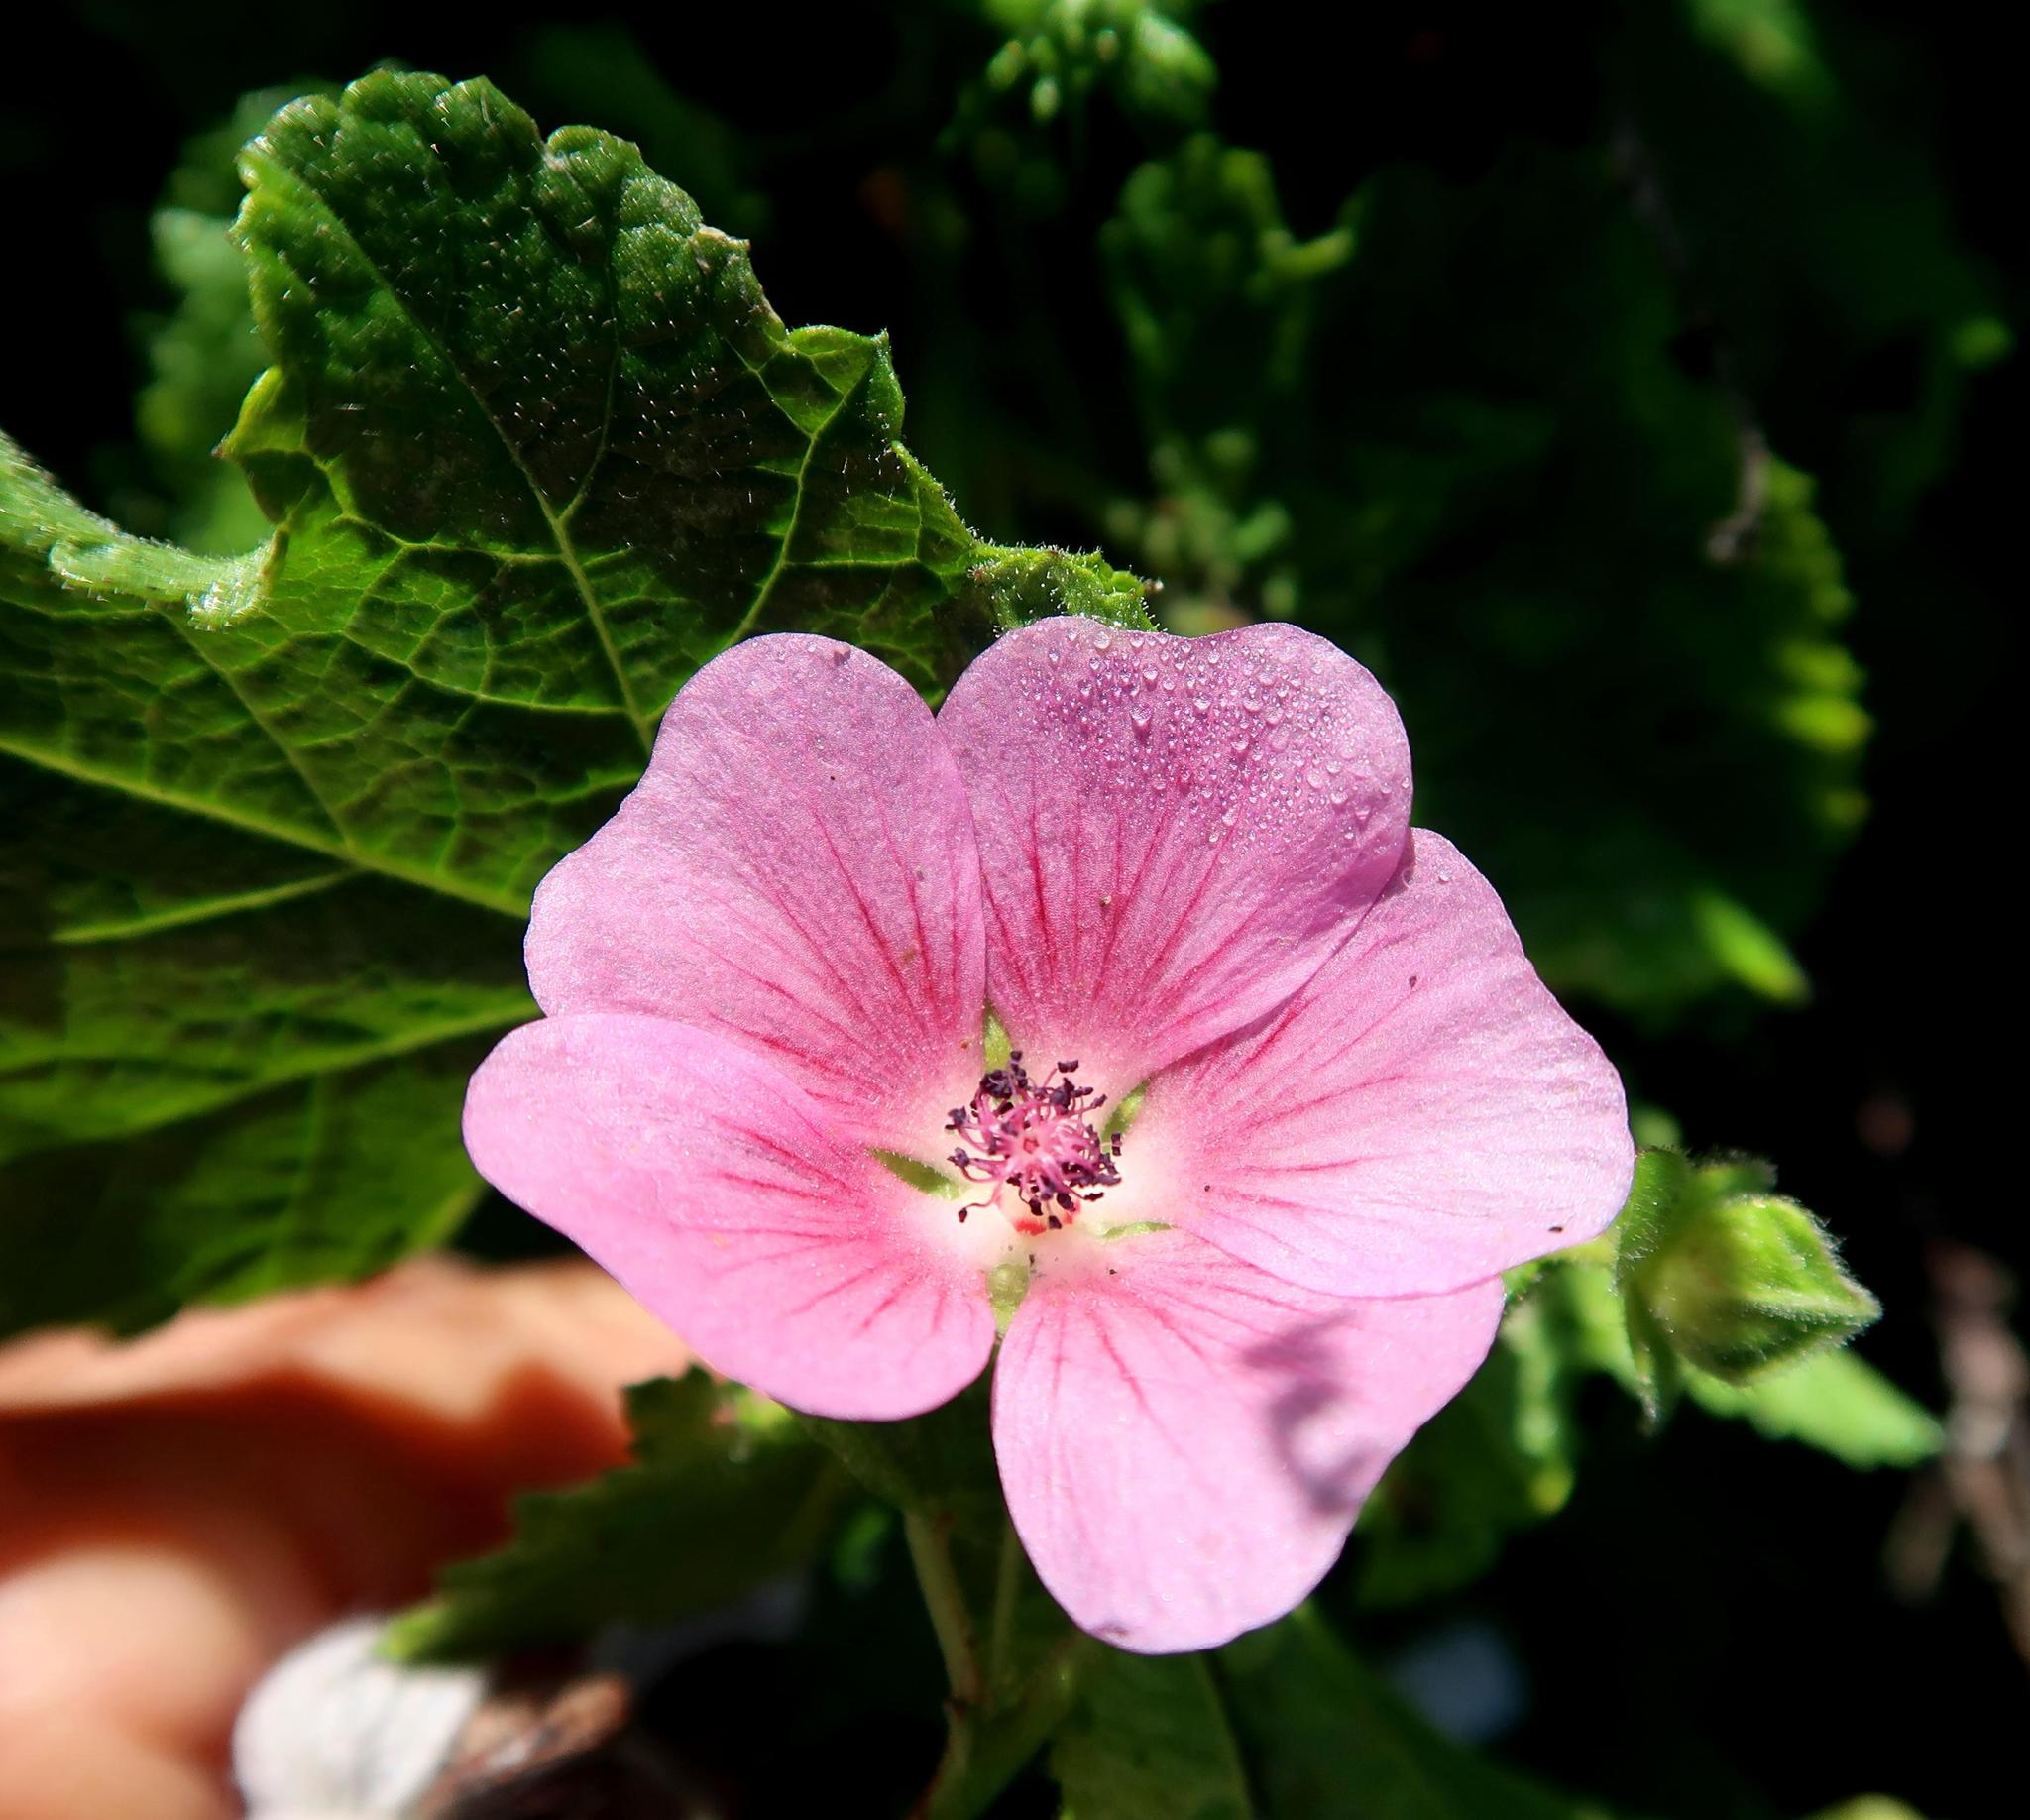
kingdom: Plantae
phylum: Tracheophyta
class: Magnoliopsida
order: Malvales
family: Malvaceae
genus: Anisodontea
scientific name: Anisodontea scabrosa
